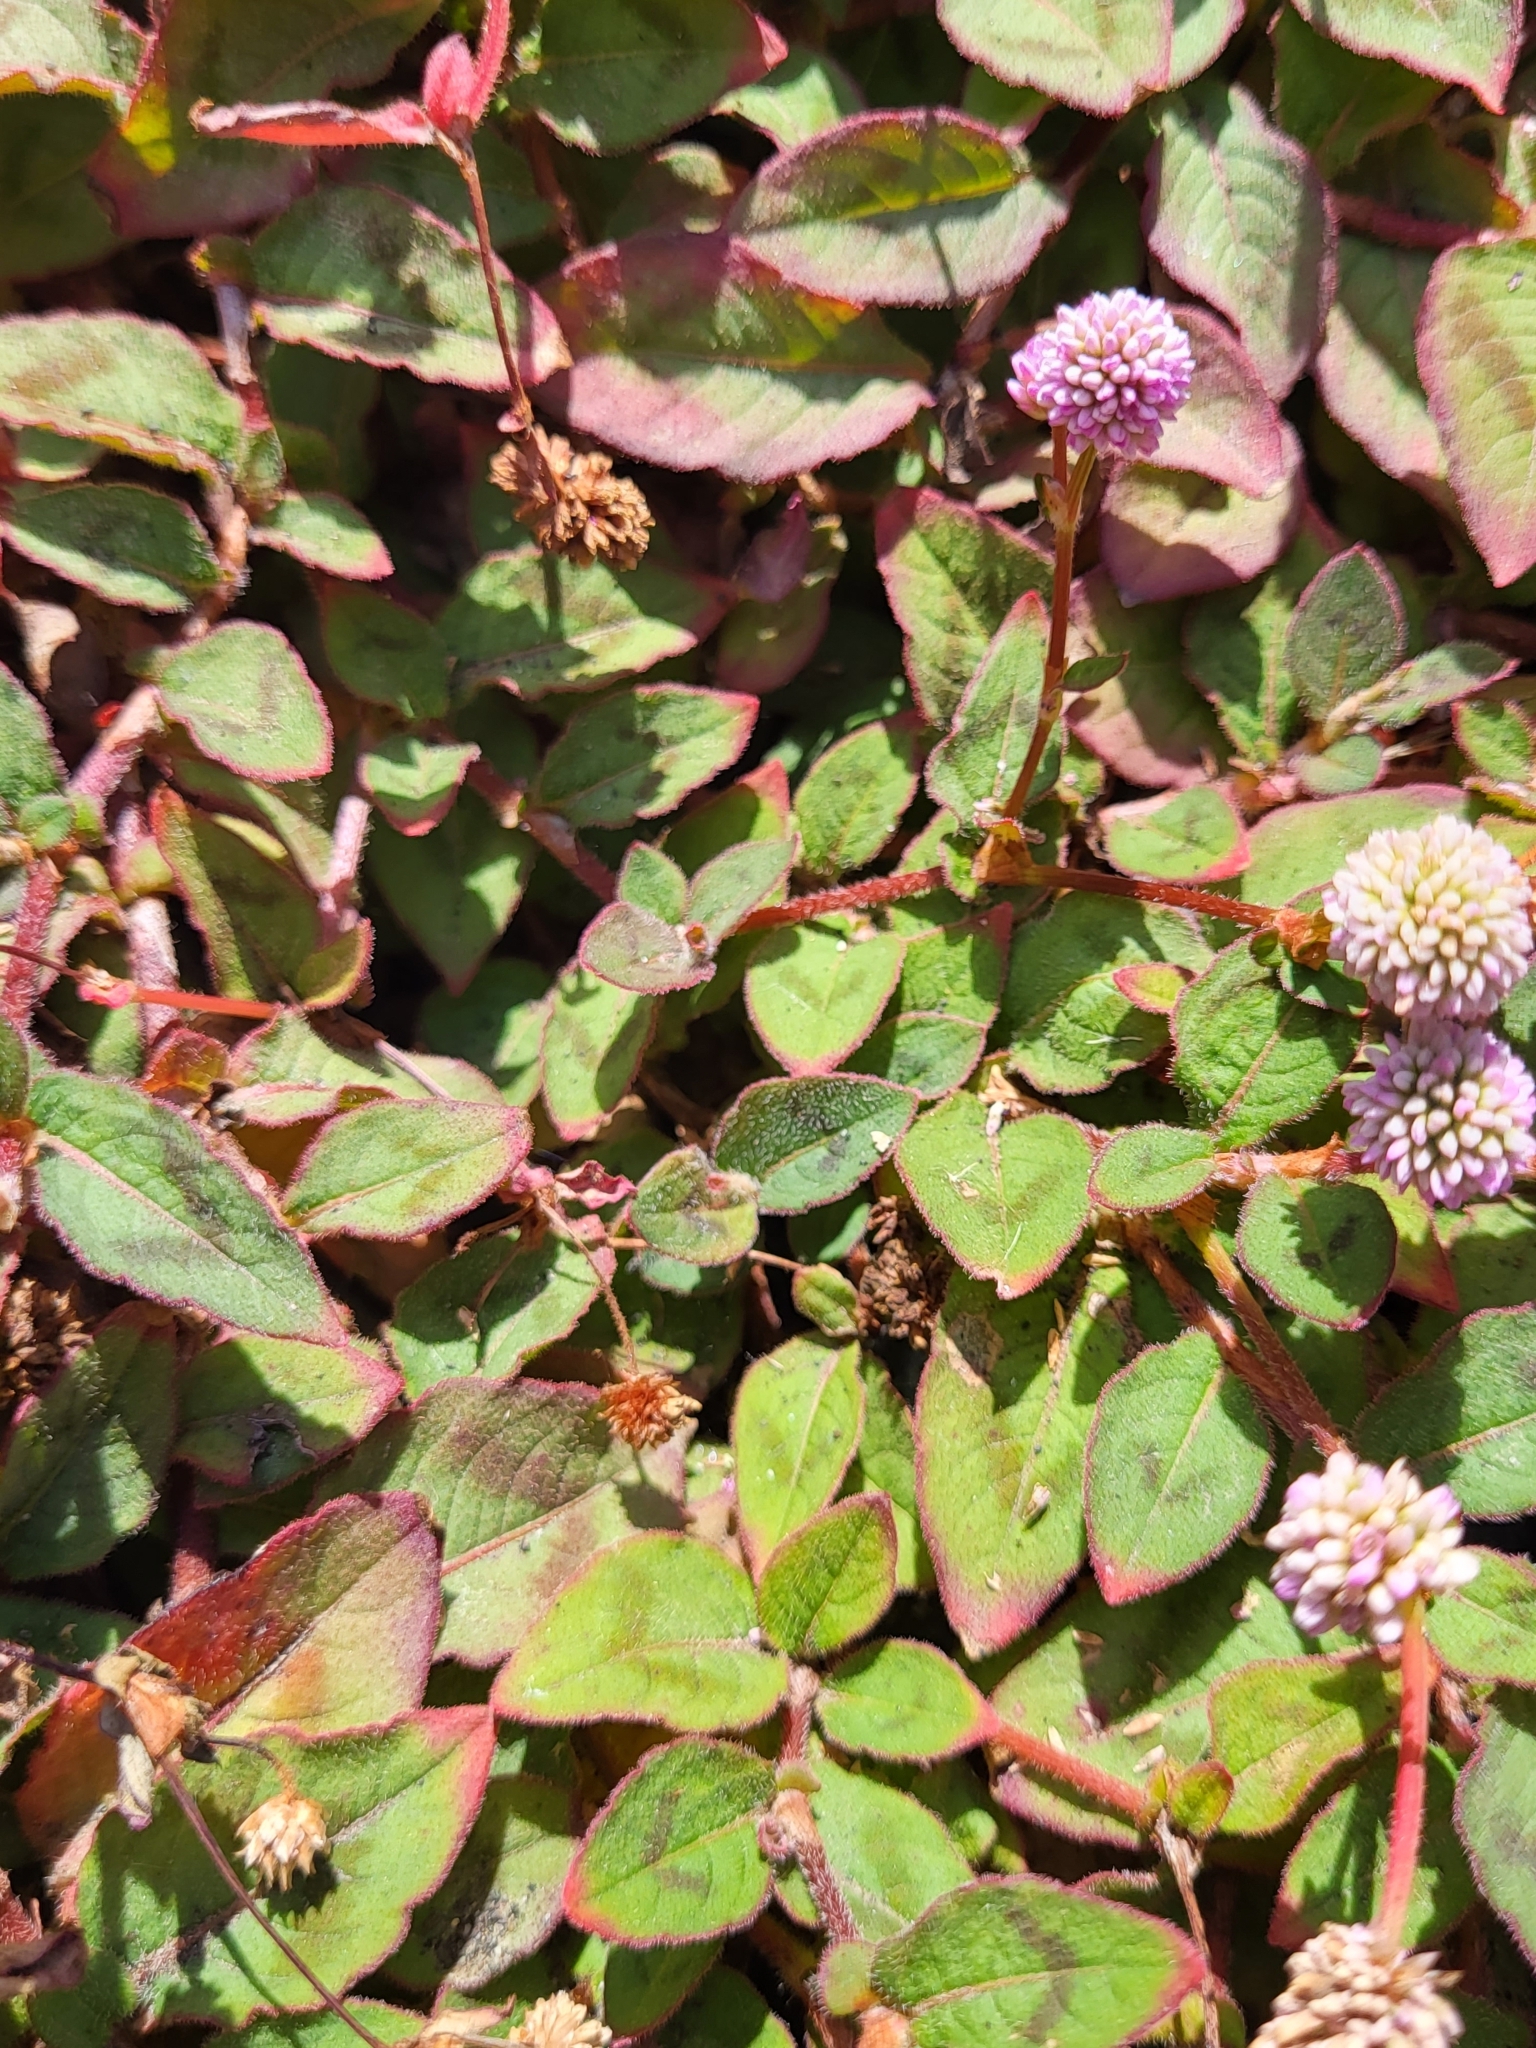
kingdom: Plantae
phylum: Tracheophyta
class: Magnoliopsida
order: Caryophyllales
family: Polygonaceae
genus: Persicaria
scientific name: Persicaria capitata
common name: Pinkhead smartweed
